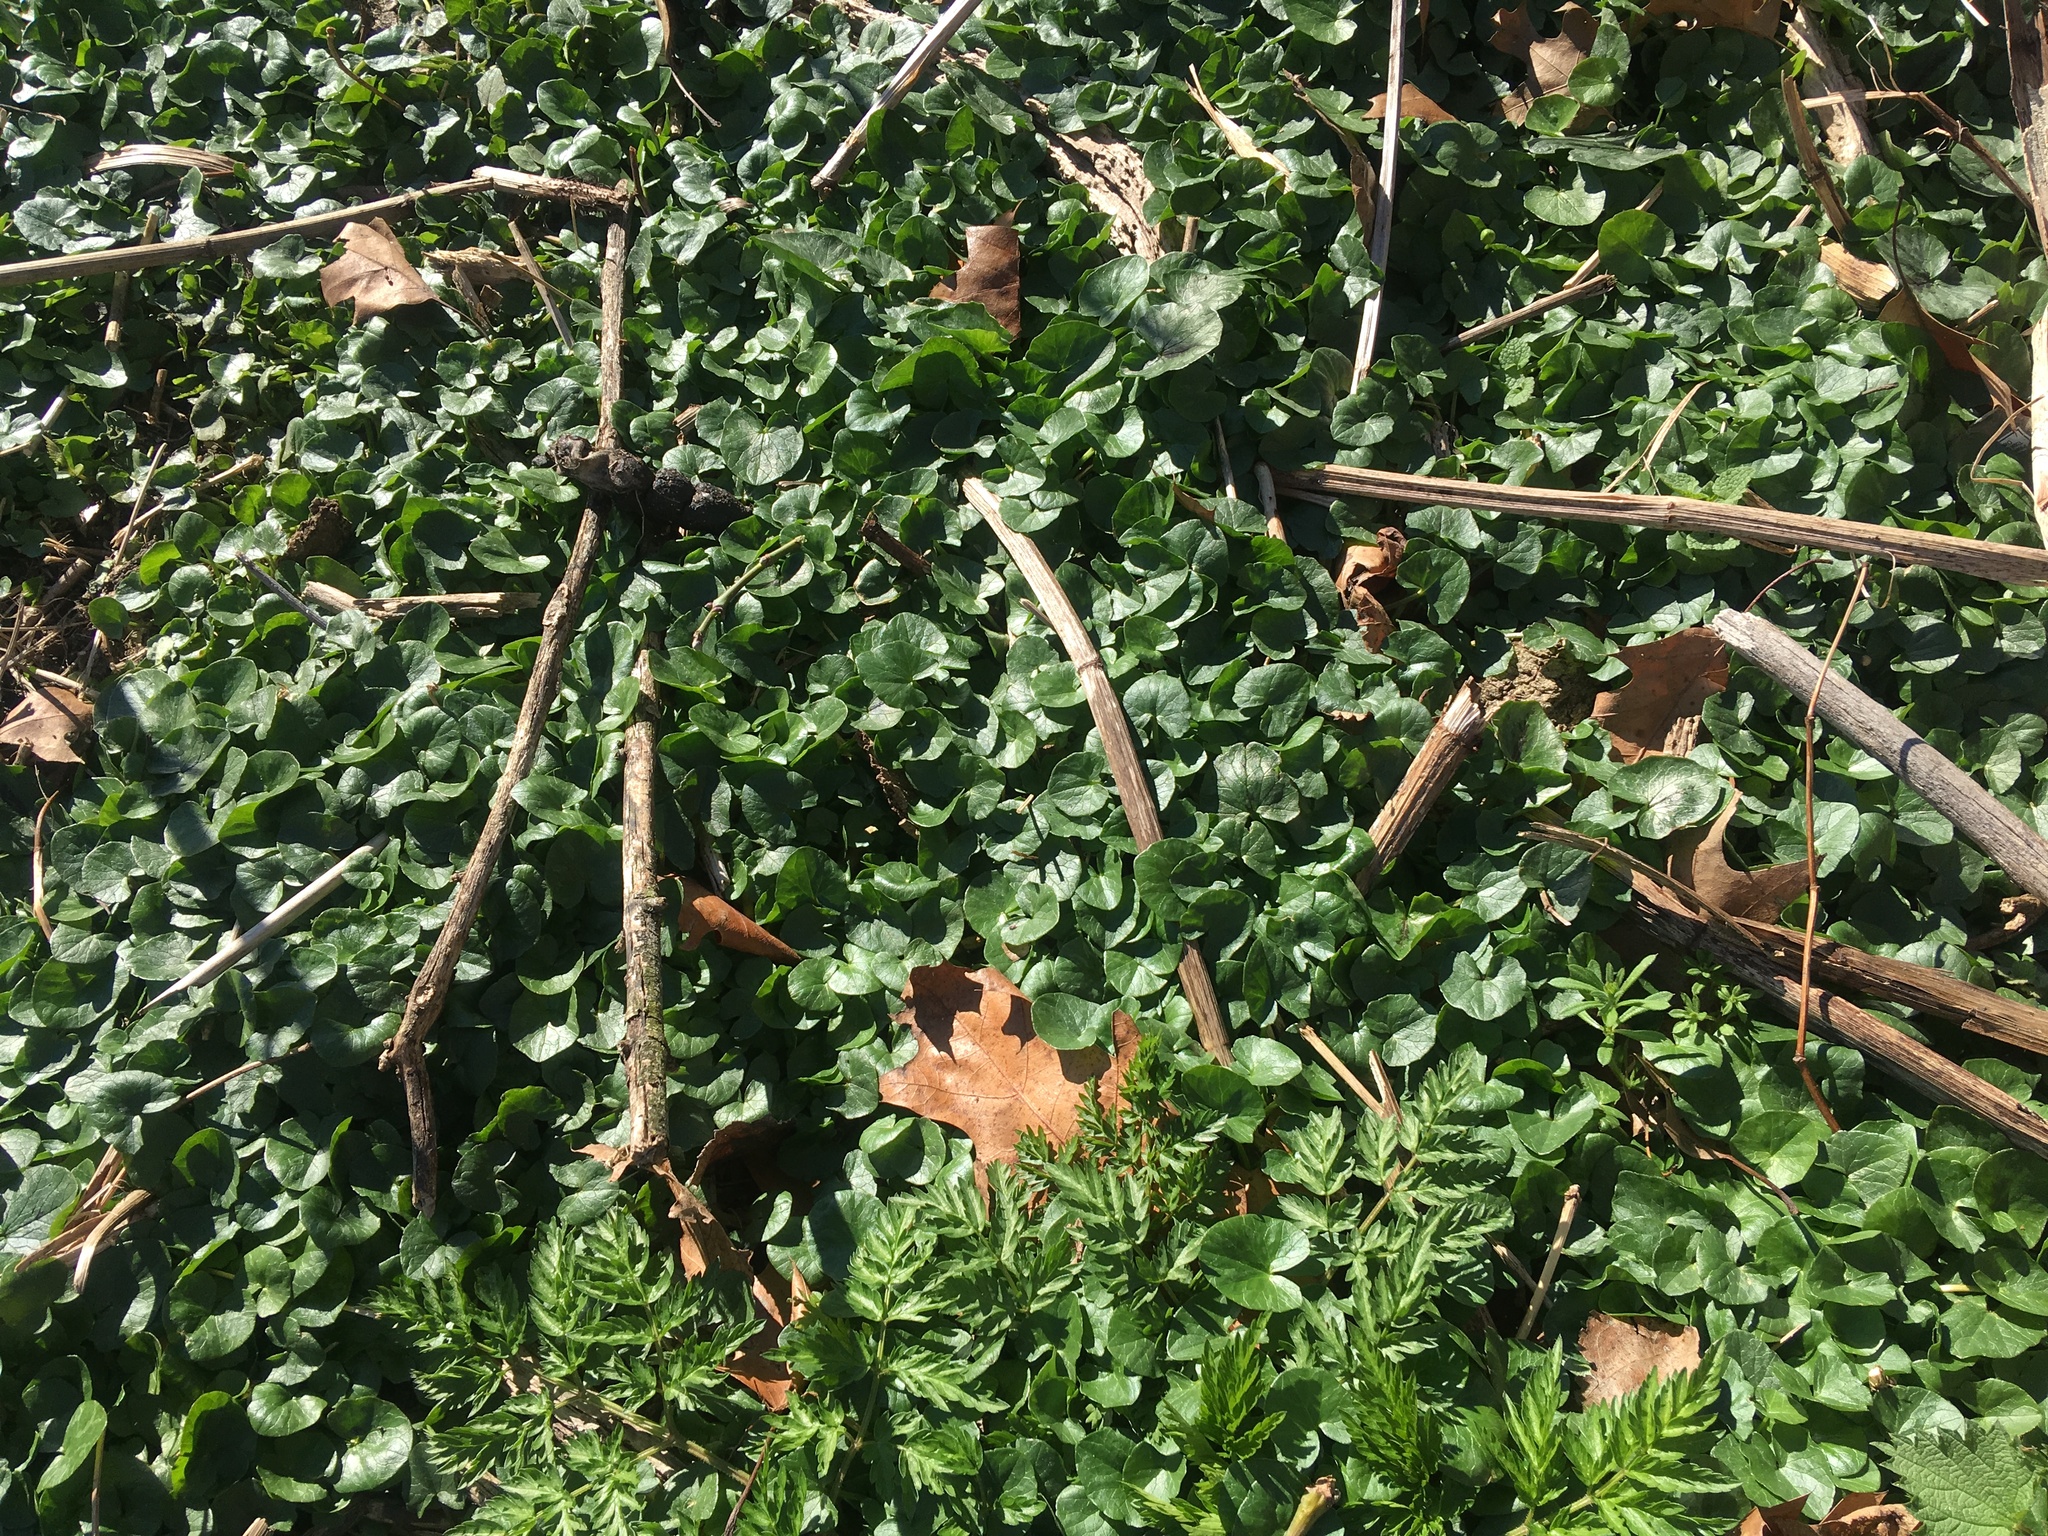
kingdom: Plantae
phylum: Tracheophyta
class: Magnoliopsida
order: Ranunculales
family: Ranunculaceae
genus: Ficaria
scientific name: Ficaria verna
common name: Lesser celandine
